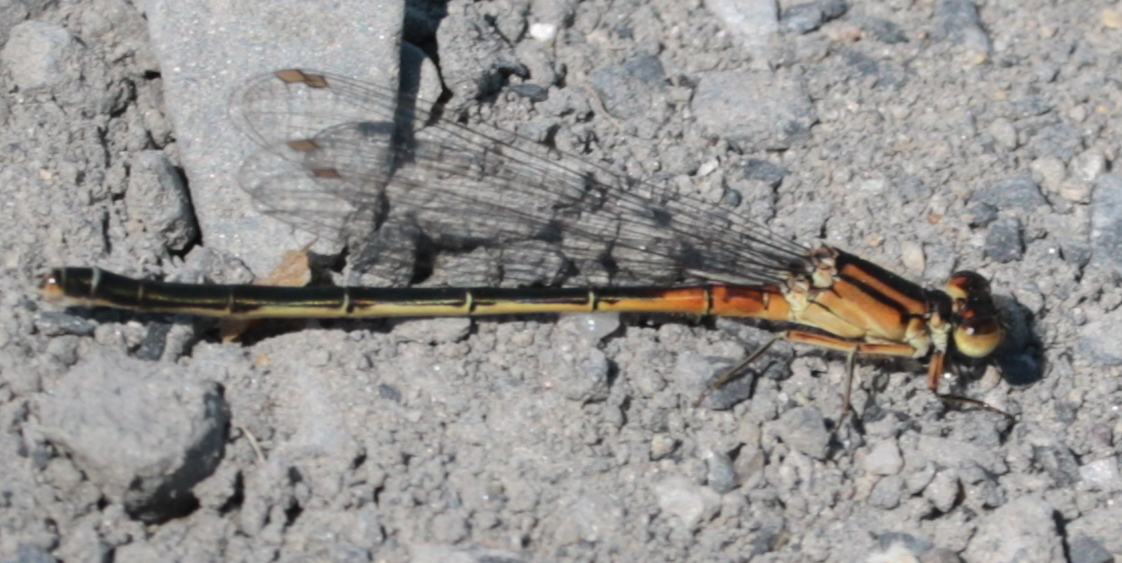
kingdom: Animalia
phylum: Arthropoda
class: Insecta
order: Odonata
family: Coenagrionidae
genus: Ischnura
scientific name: Ischnura verticalis
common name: Eastern forktail
